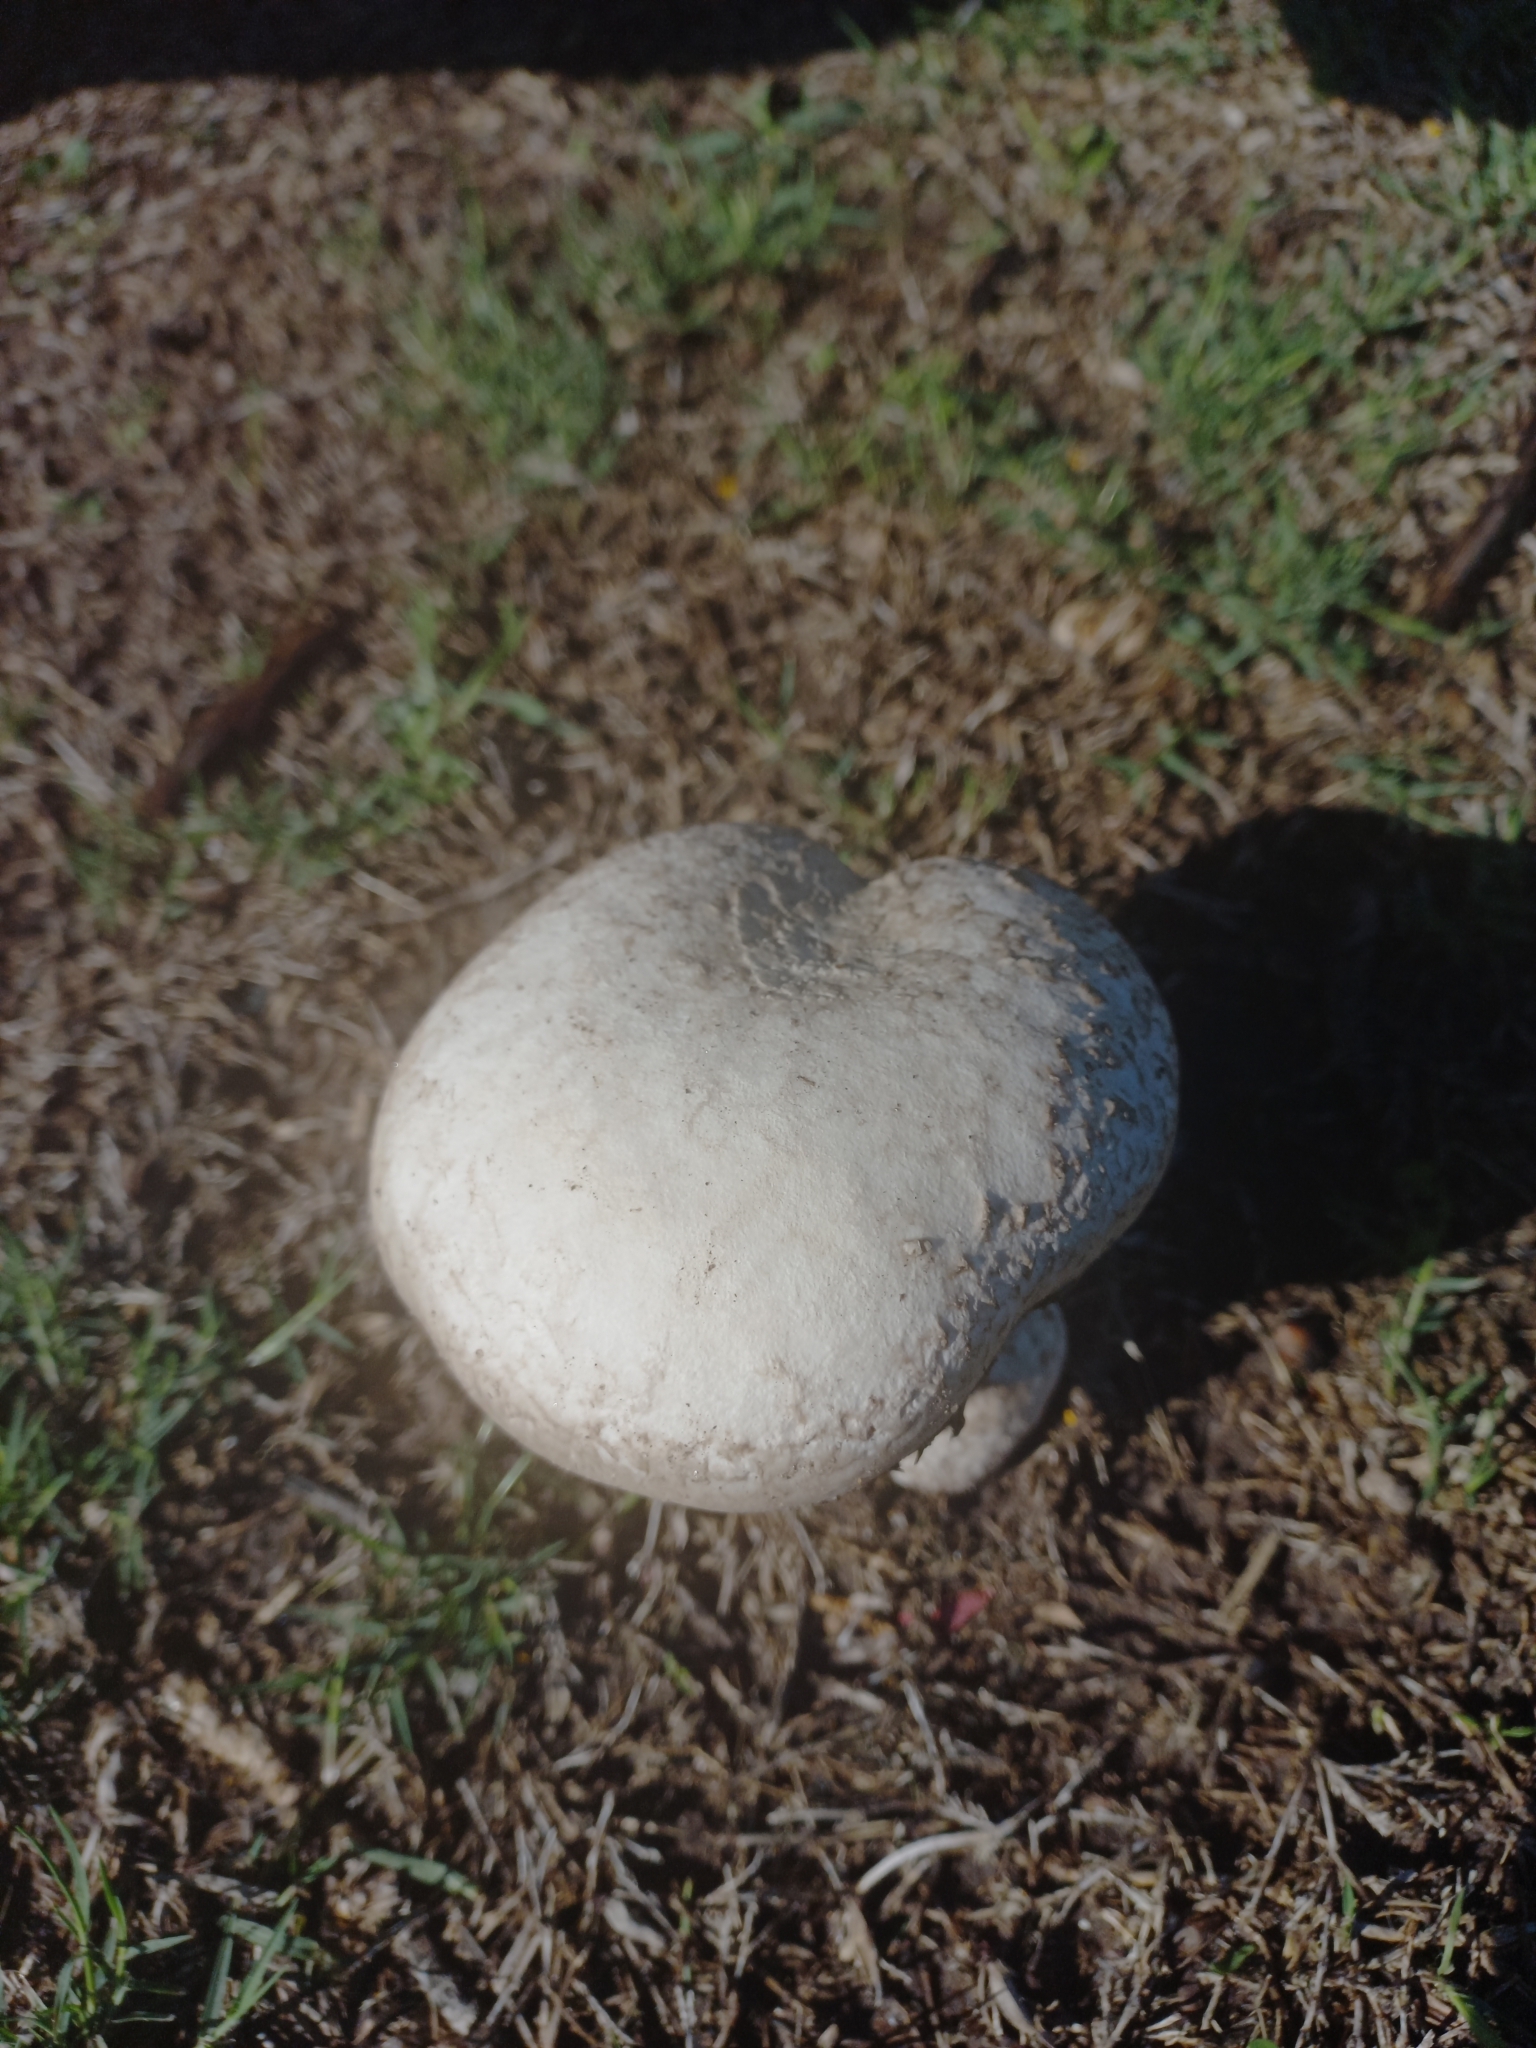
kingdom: Fungi
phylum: Basidiomycota
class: Agaricomycetes
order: Agaricales
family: Lycoperdaceae
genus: Calvatia
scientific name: Calvatia cyathiformis
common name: Purple-spored puffball
